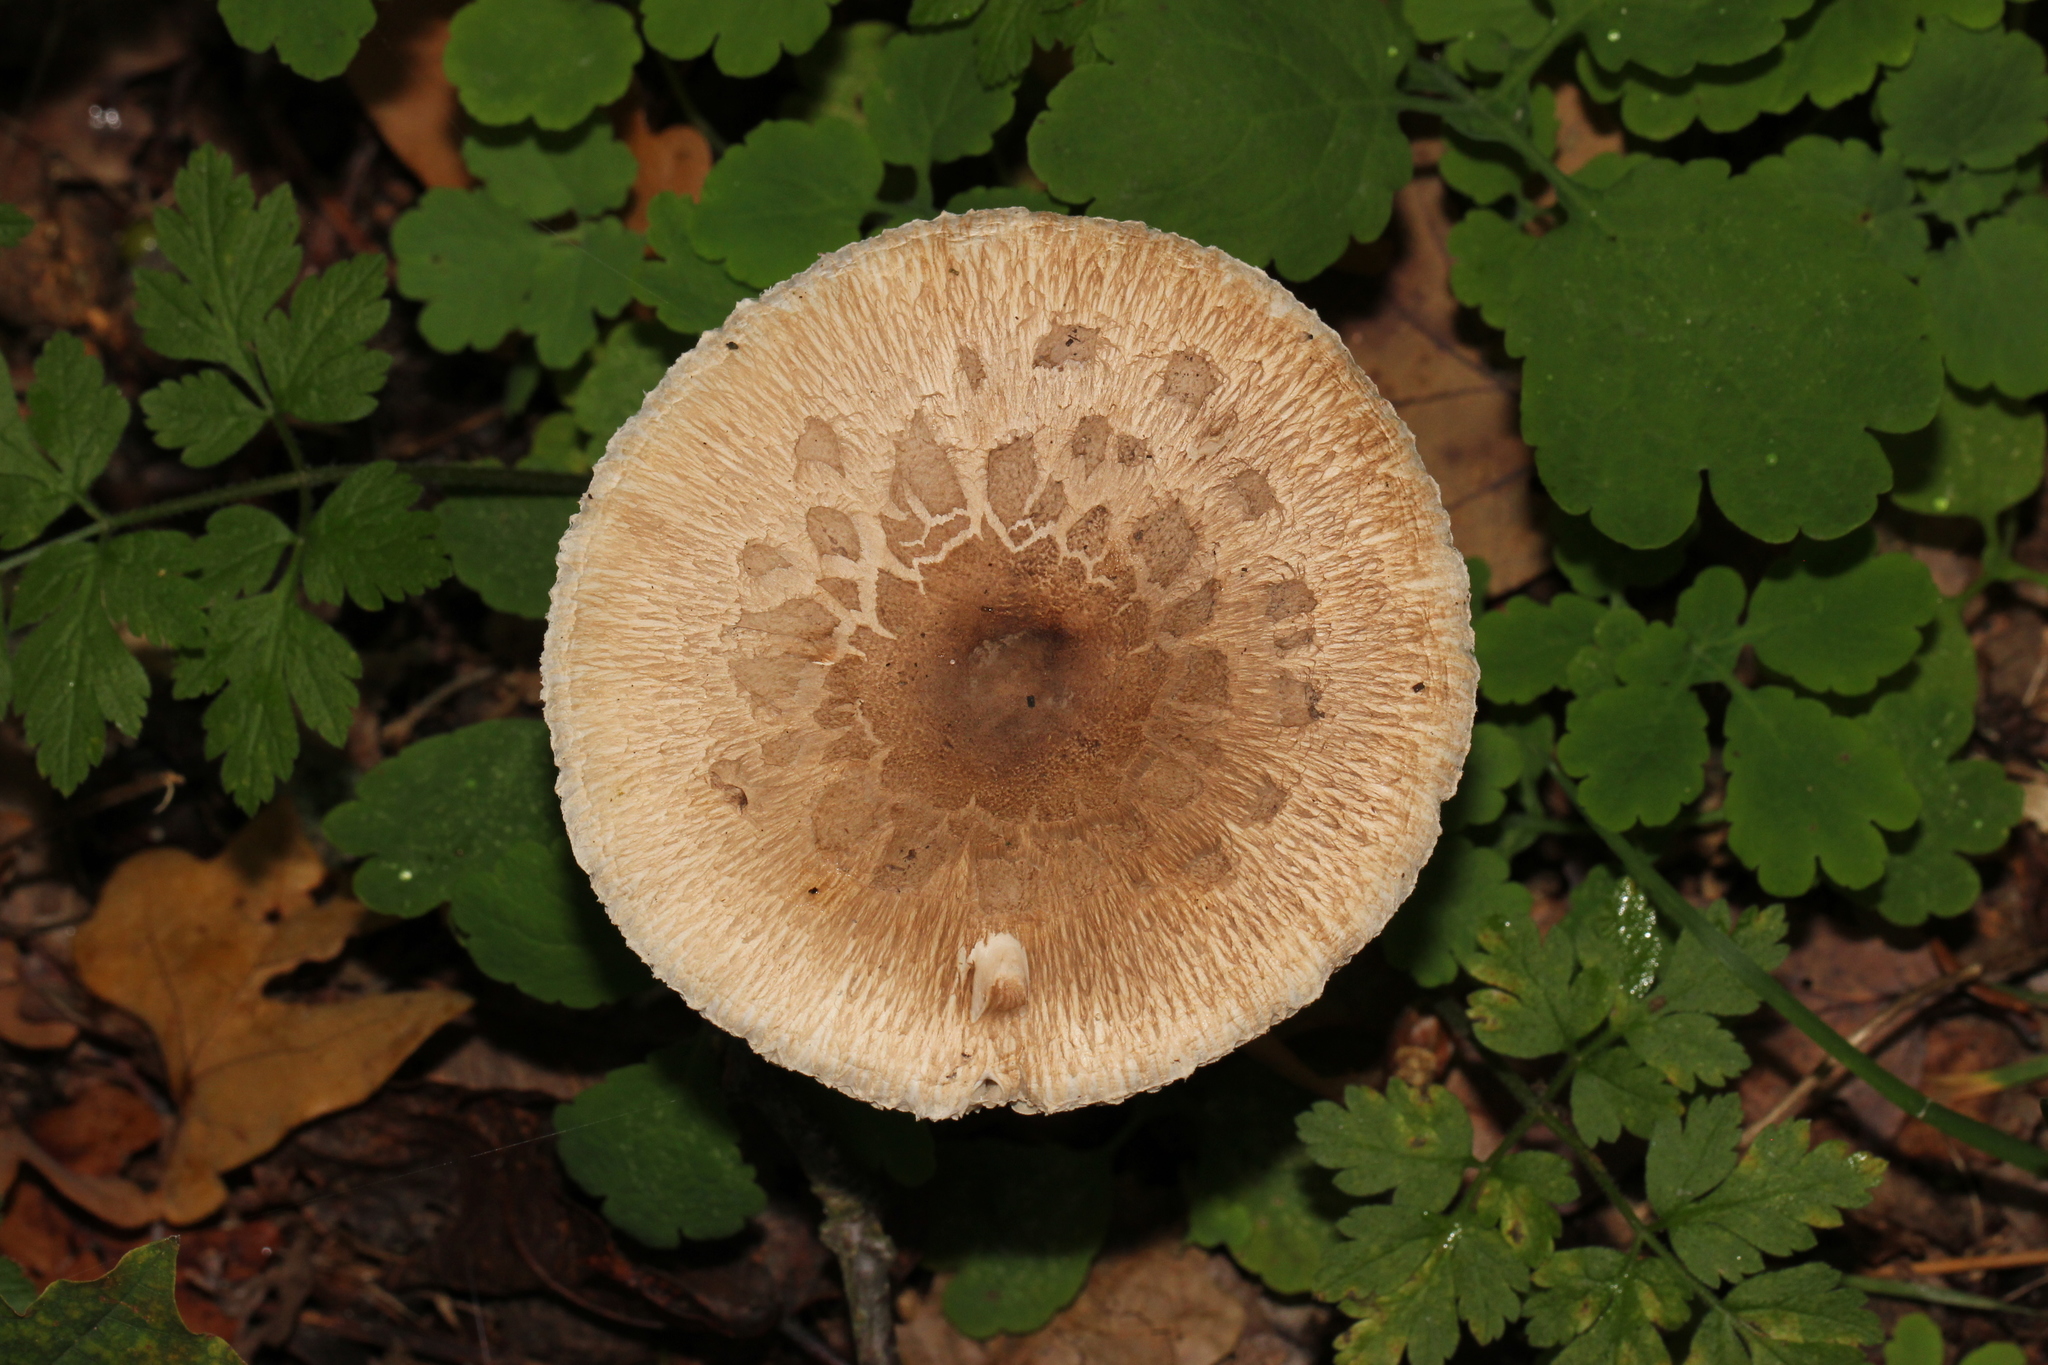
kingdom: Fungi
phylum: Basidiomycota
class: Agaricomycetes
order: Agaricales
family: Agaricaceae
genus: Macrolepiota
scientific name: Macrolepiota procera
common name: Parasol
